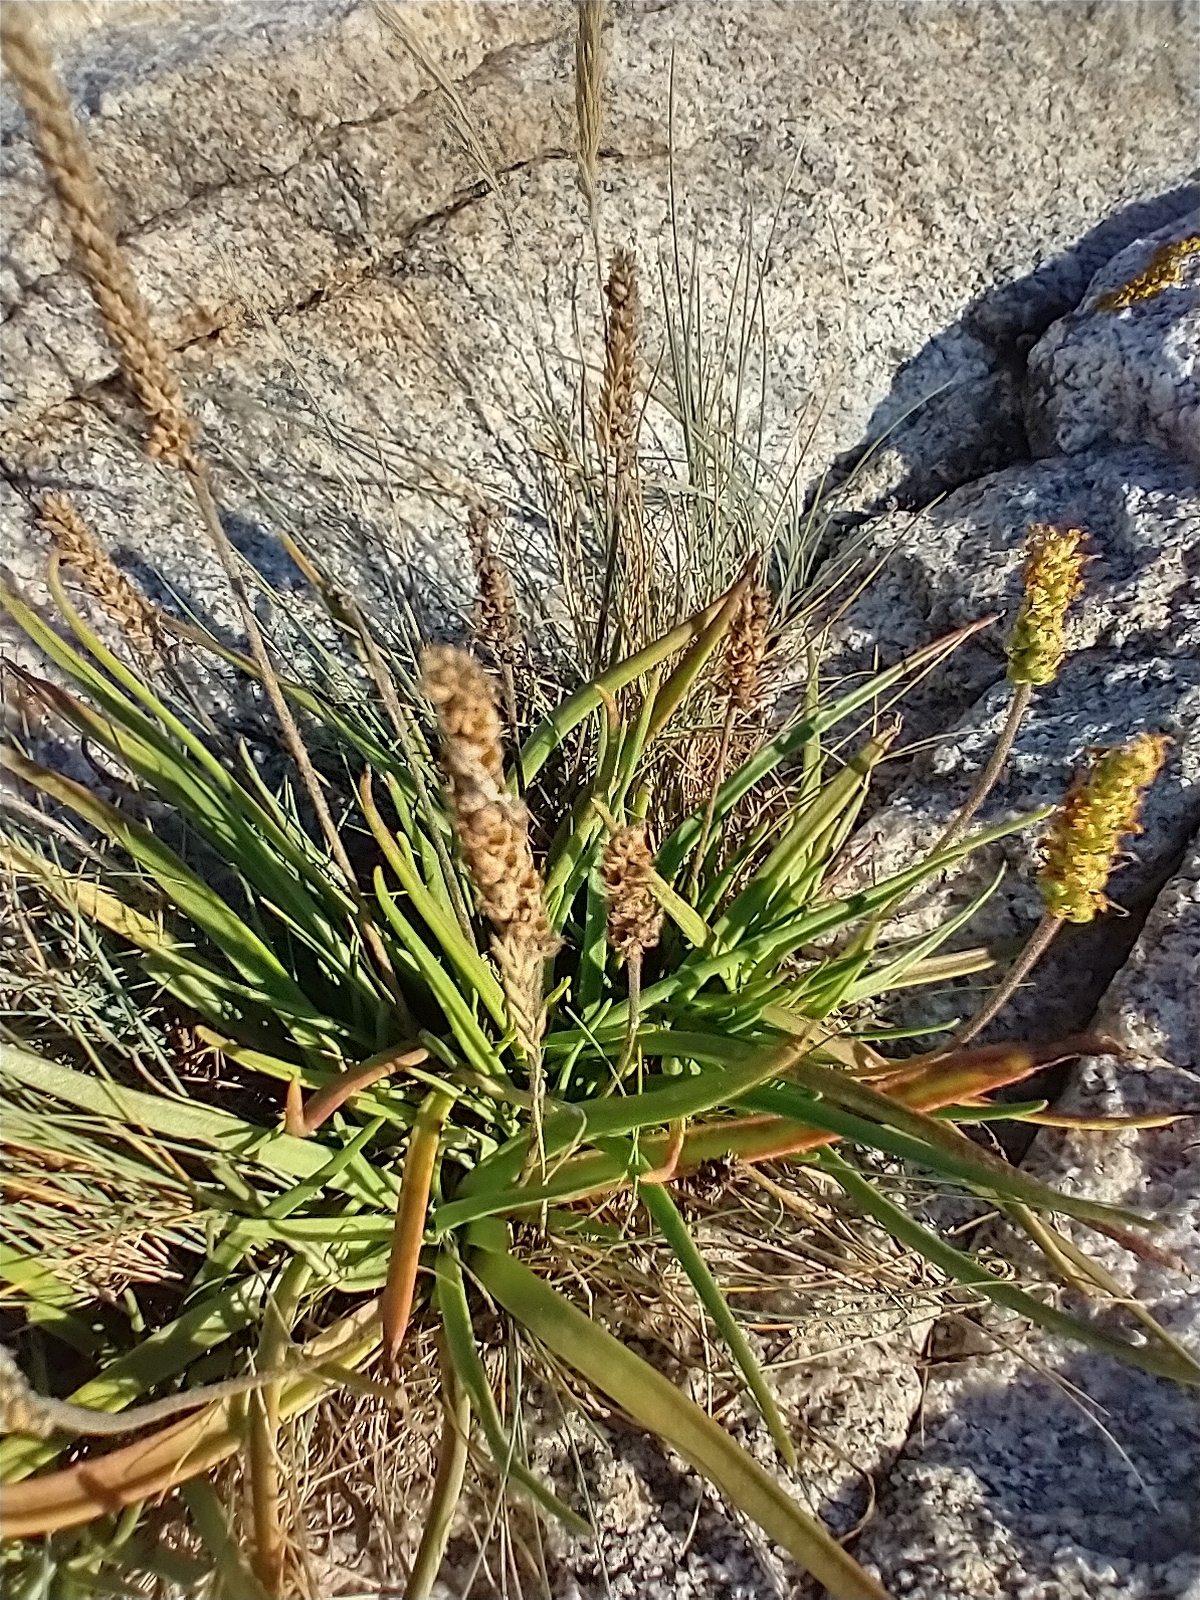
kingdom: Plantae
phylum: Tracheophyta
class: Magnoliopsida
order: Lamiales
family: Plantaginaceae
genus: Plantago
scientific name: Plantago maritima
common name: Sea plantain
